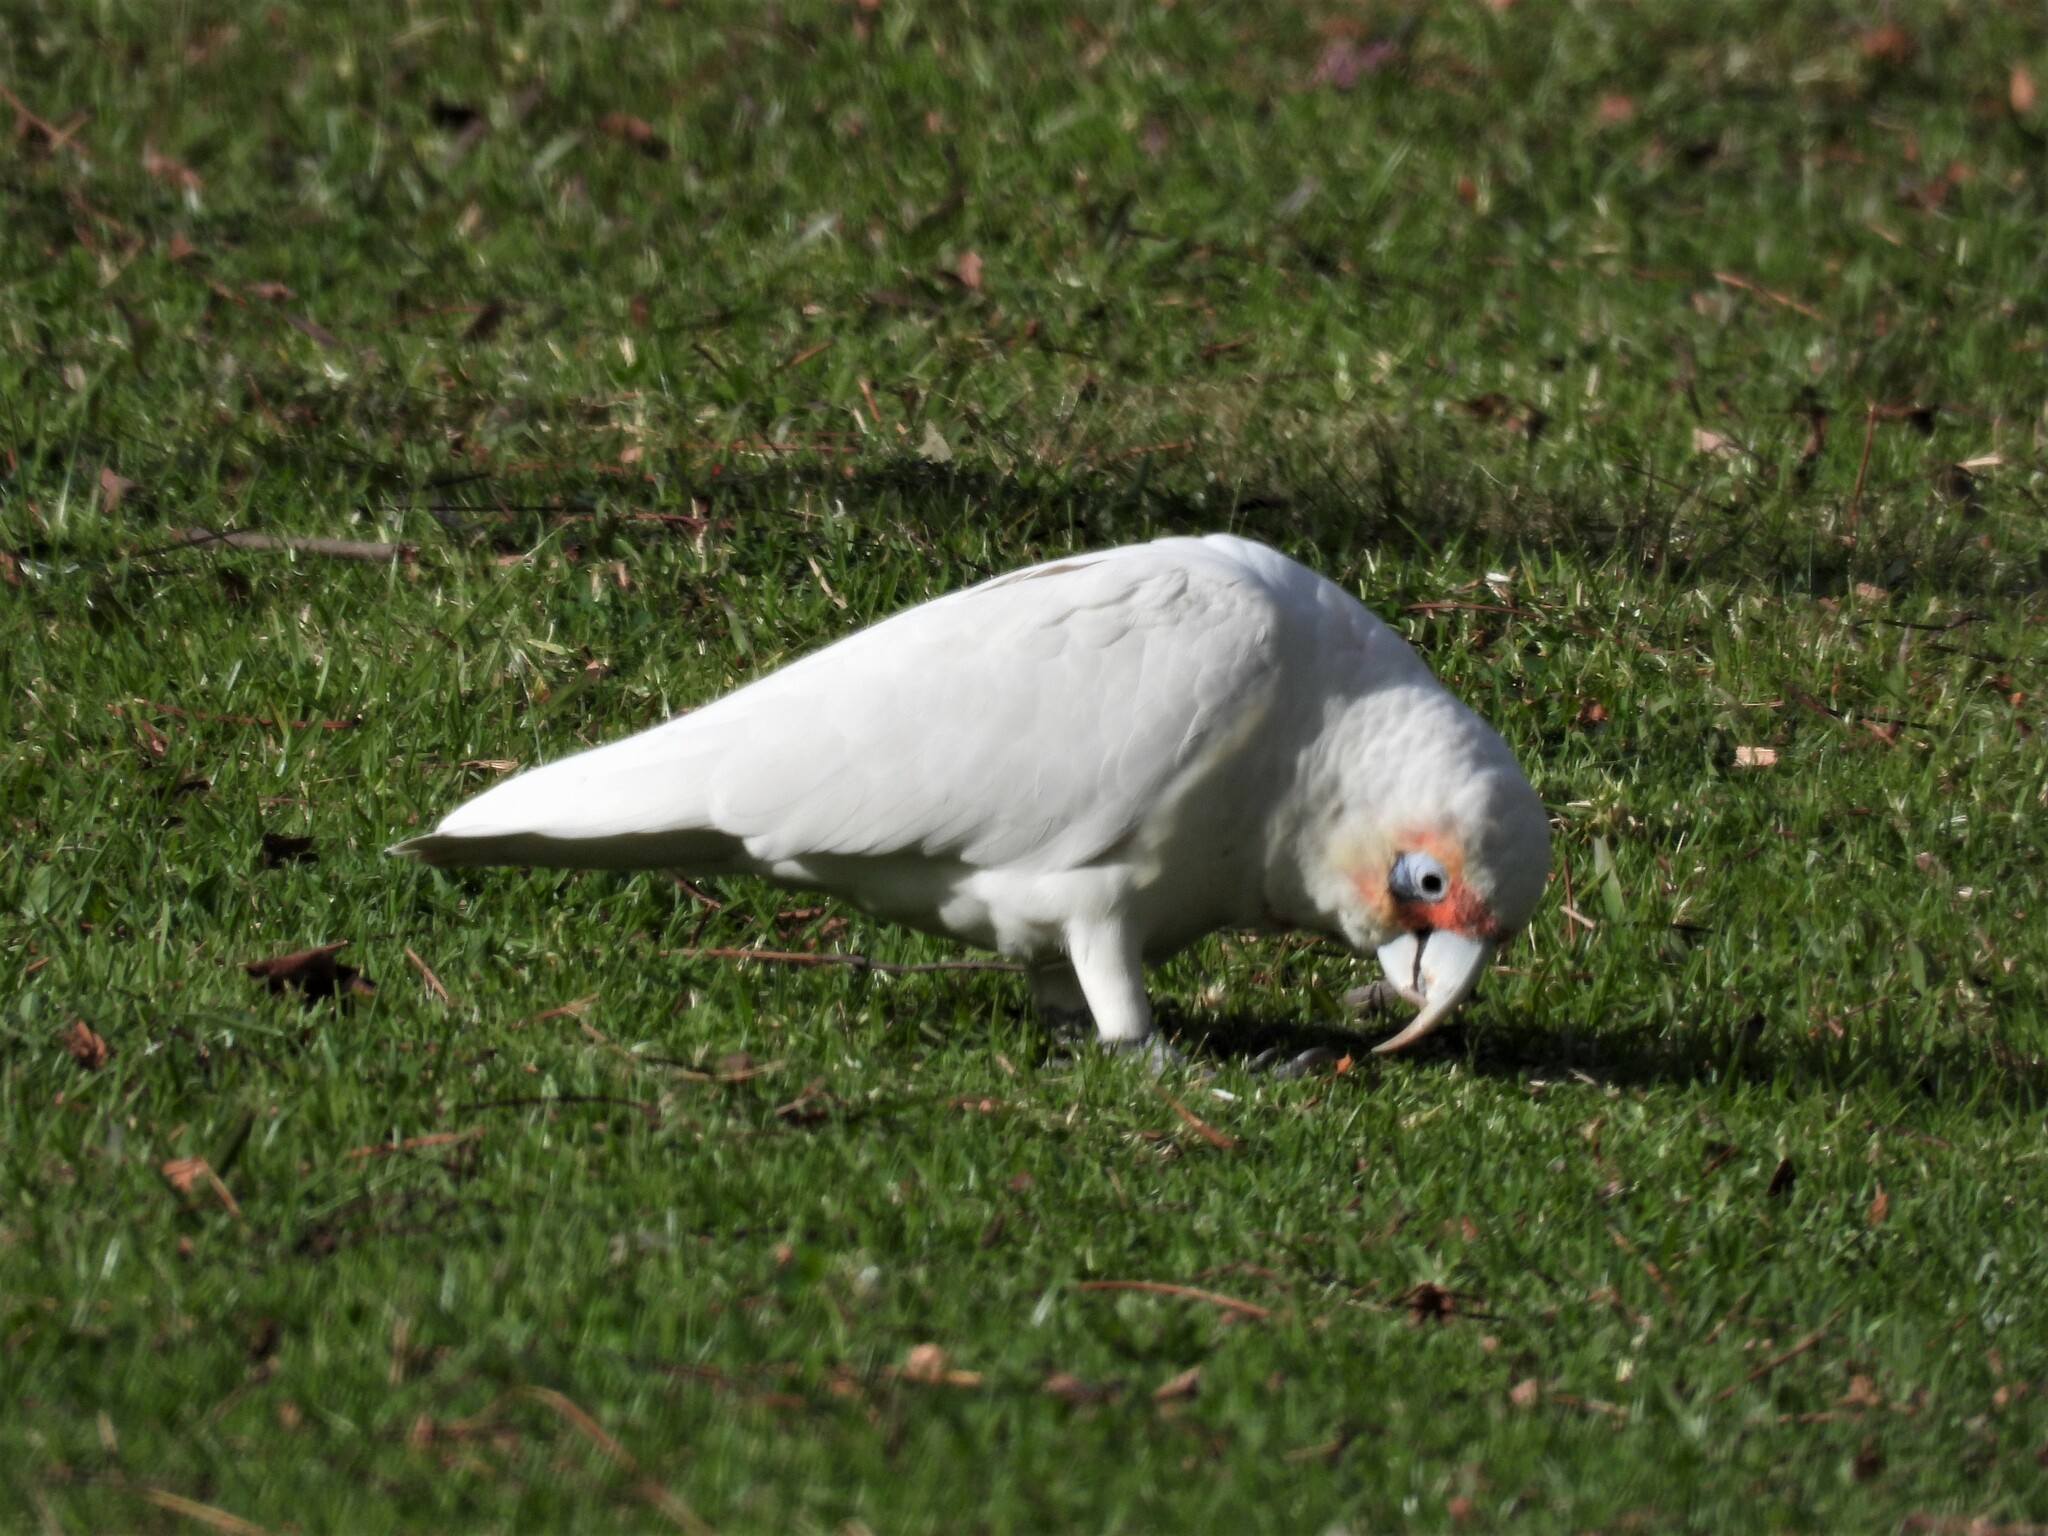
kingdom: Animalia
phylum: Chordata
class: Aves
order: Psittaciformes
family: Psittacidae
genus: Cacatua
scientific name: Cacatua tenuirostris
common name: Long-billed corella
